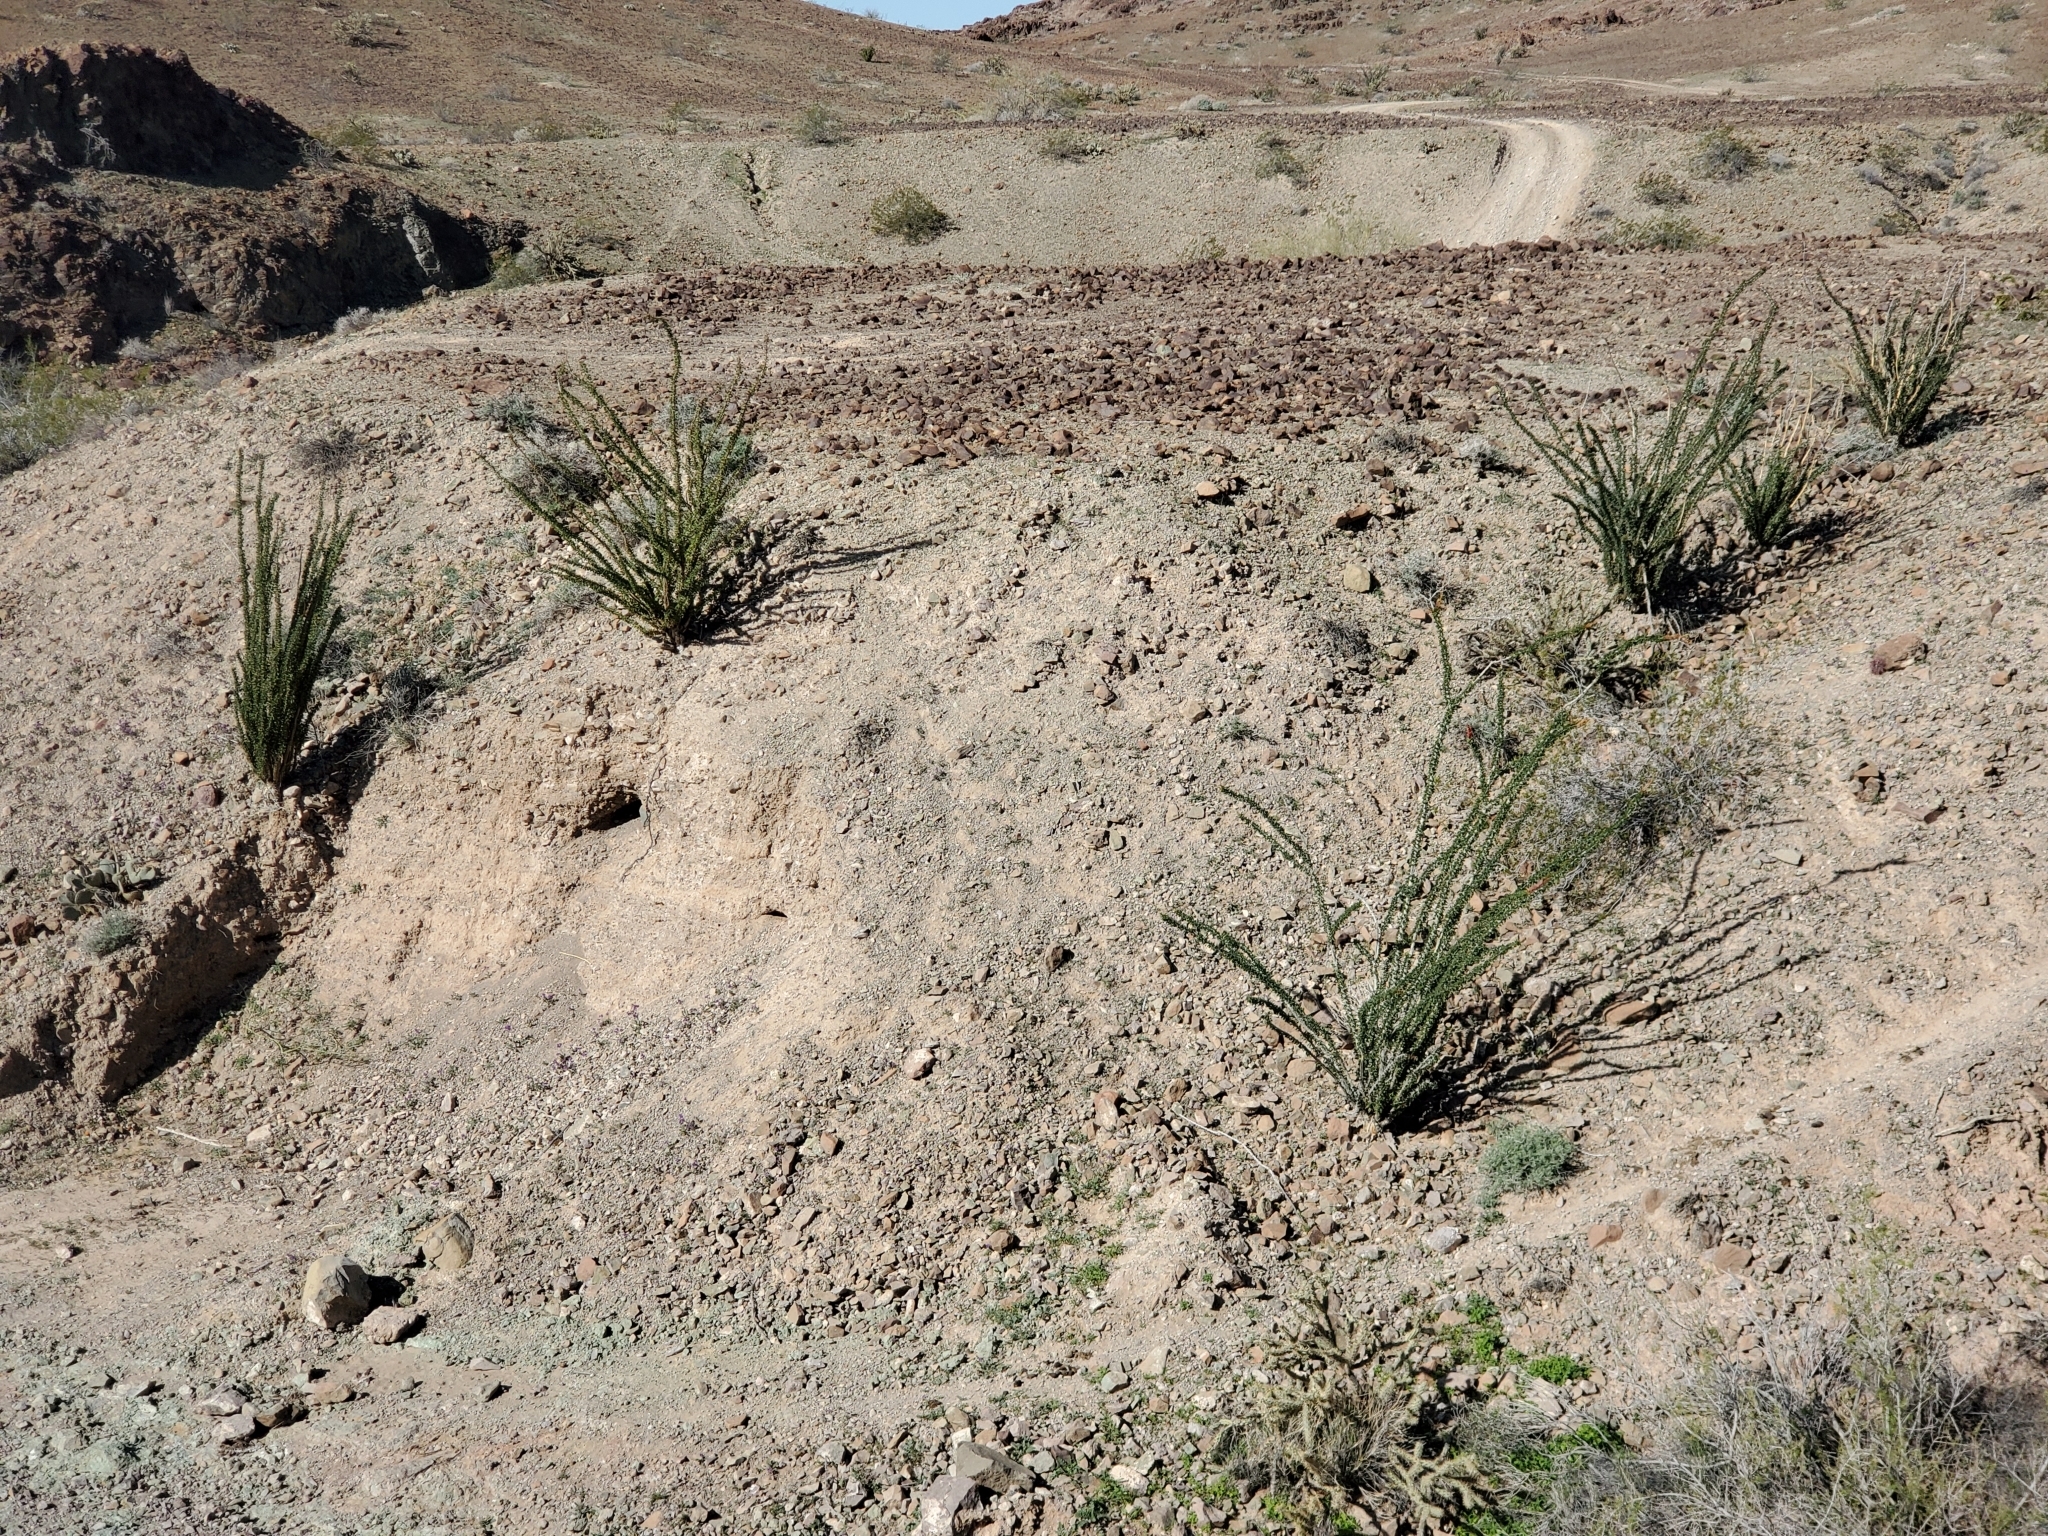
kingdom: Plantae
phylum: Tracheophyta
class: Magnoliopsida
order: Ericales
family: Fouquieriaceae
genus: Fouquieria
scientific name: Fouquieria splendens
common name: Vine-cactus
